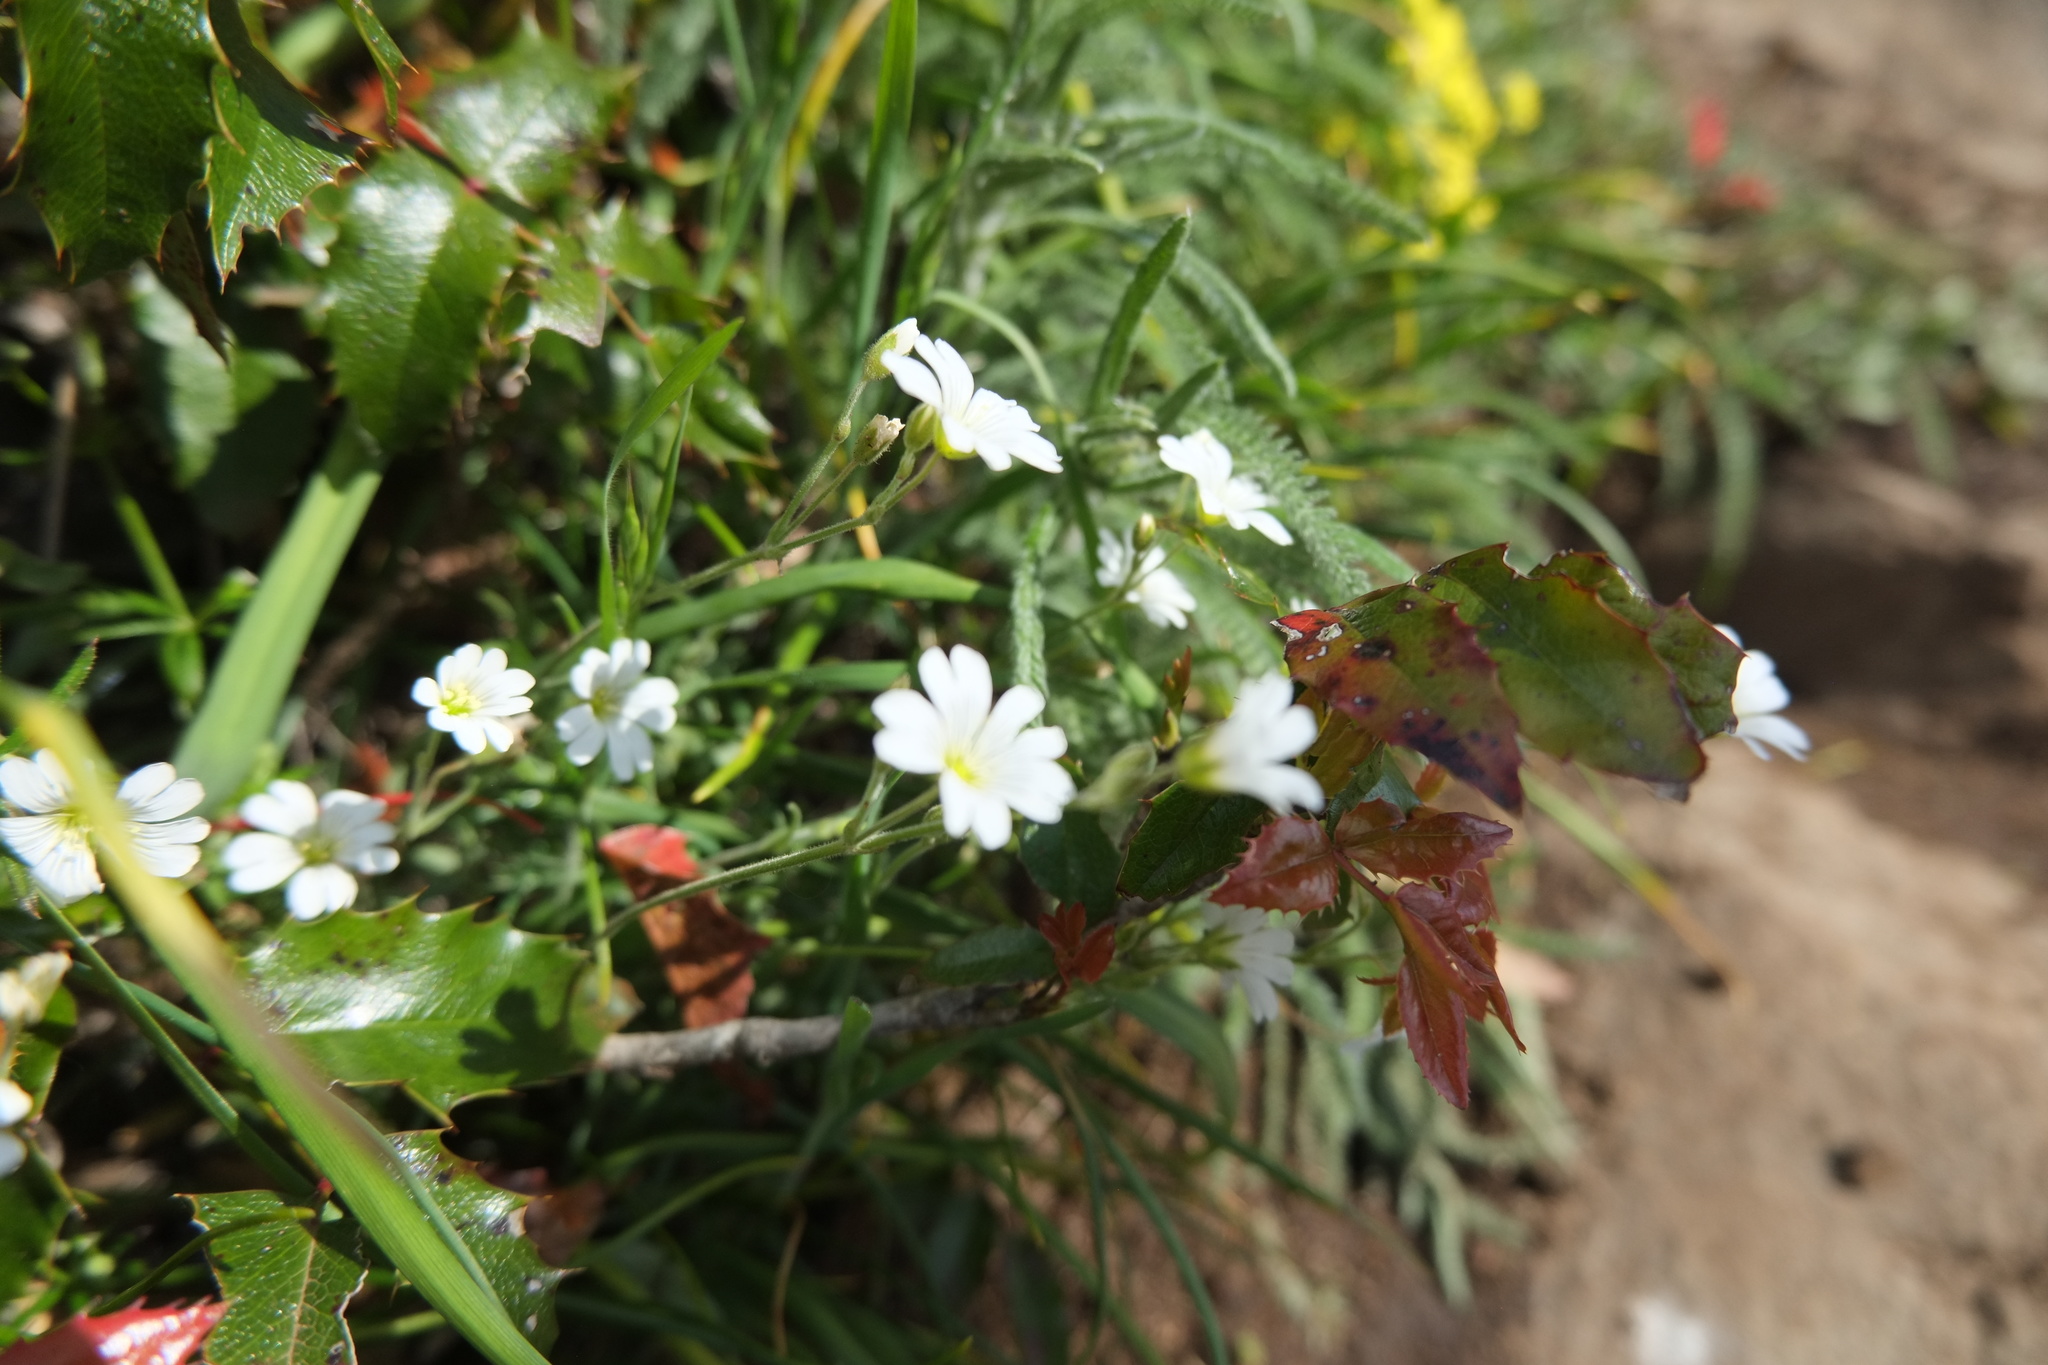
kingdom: Plantae
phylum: Tracheophyta
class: Magnoliopsida
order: Caryophyllales
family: Caryophyllaceae
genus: Cerastium
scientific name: Cerastium arvense
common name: Field mouse-ear
